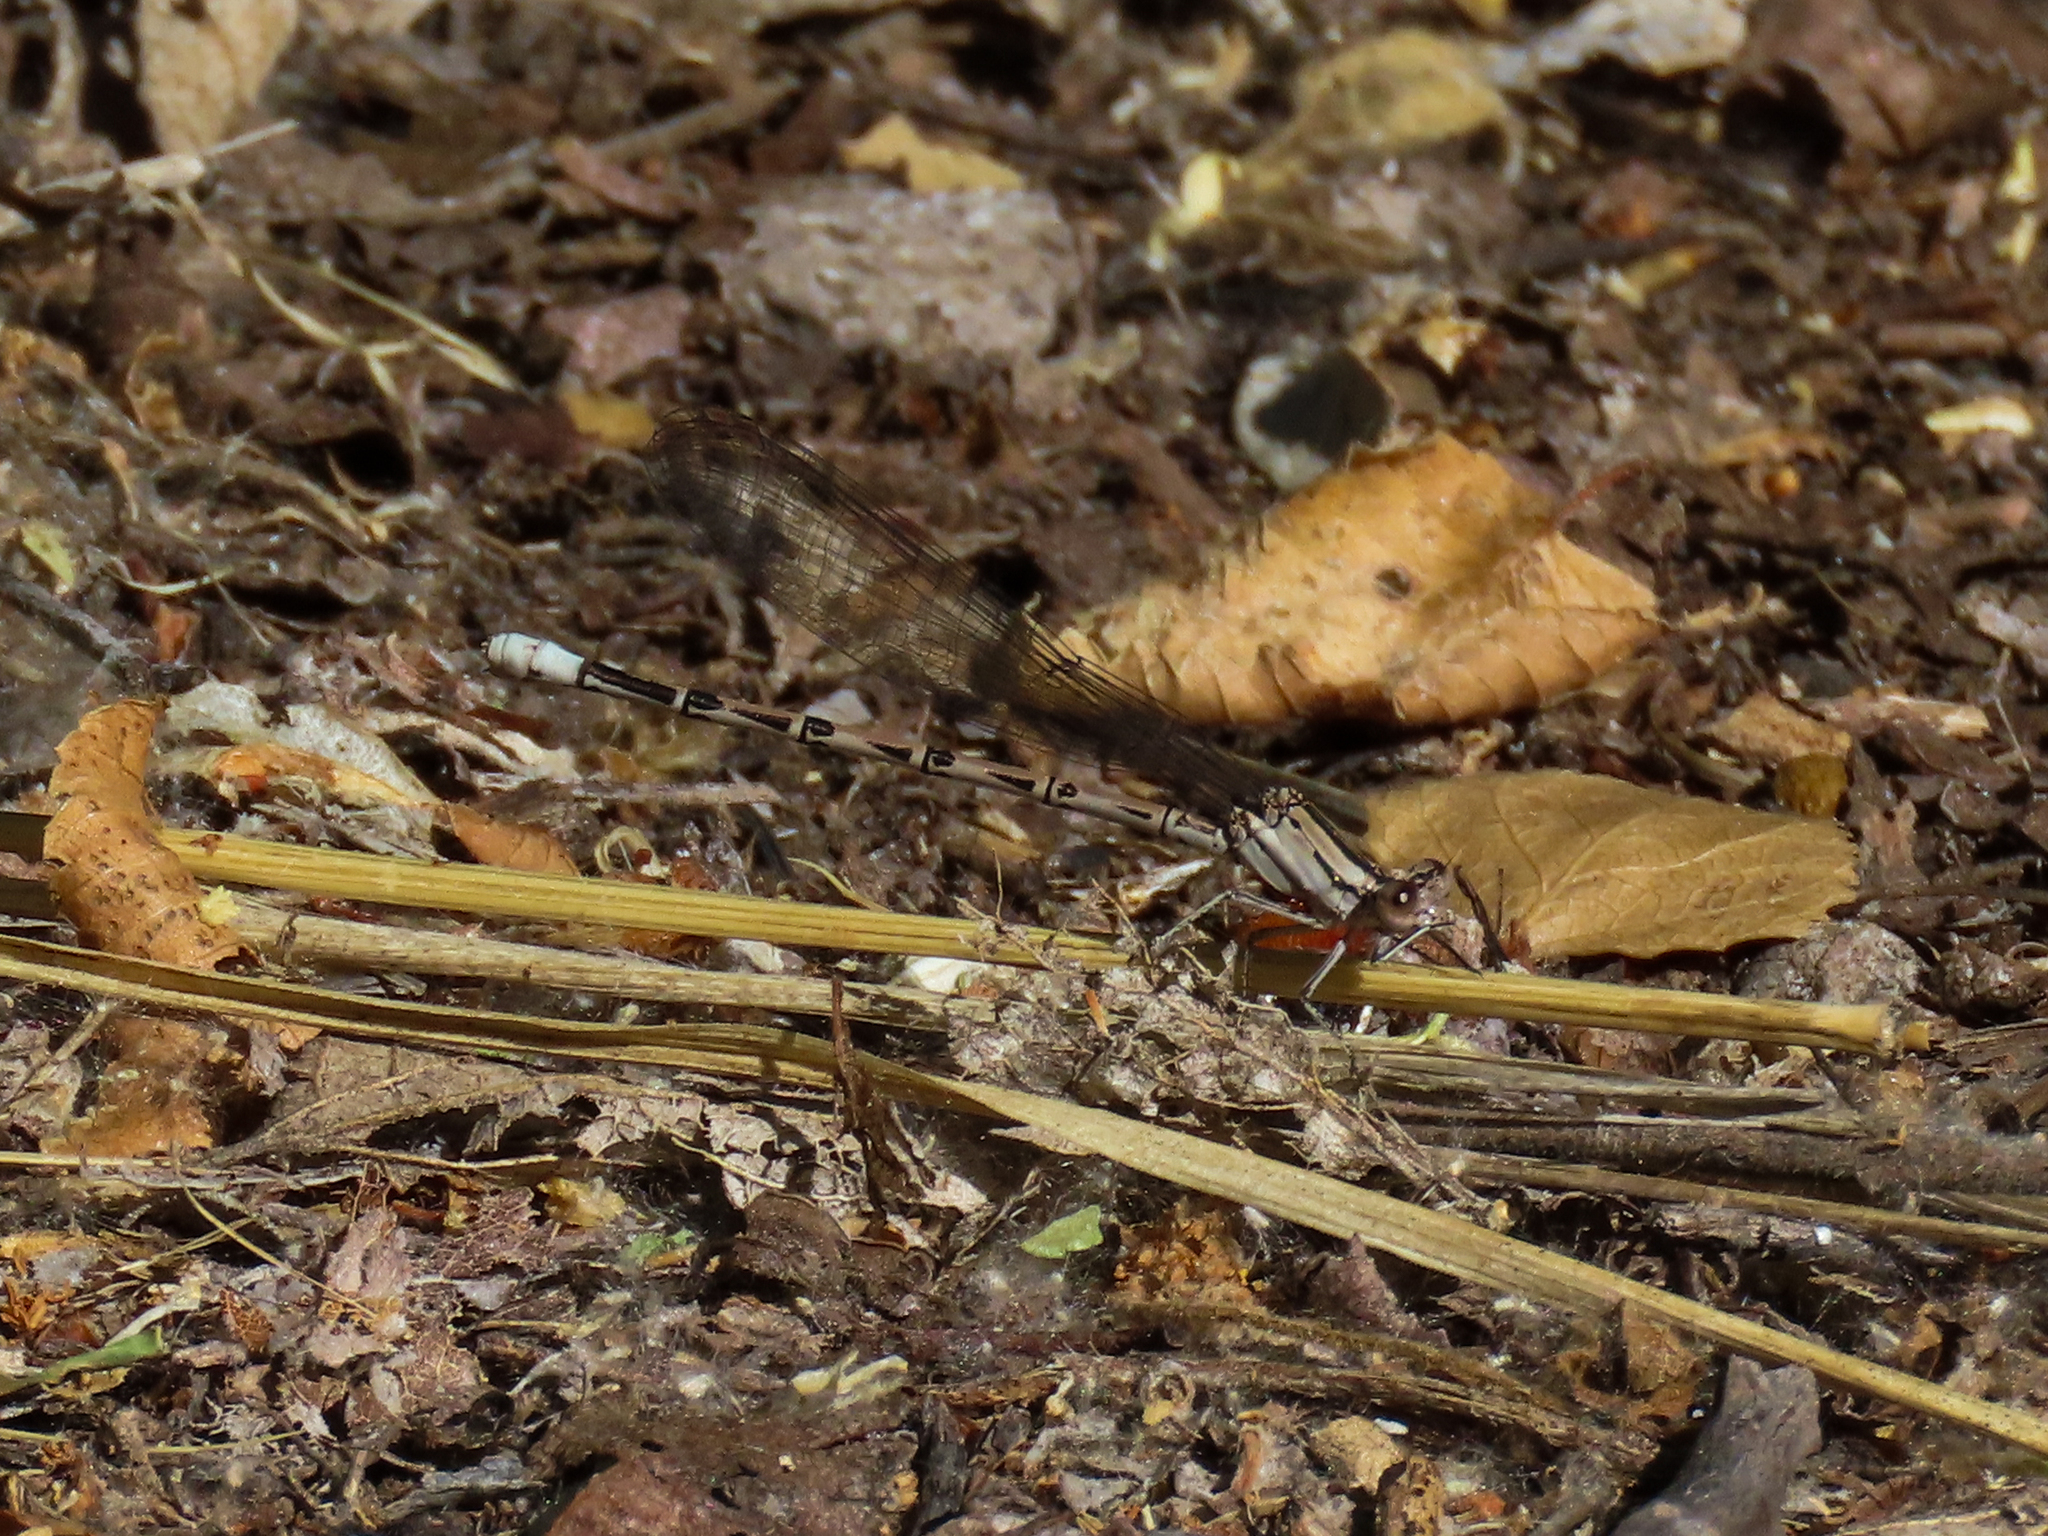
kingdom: Animalia
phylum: Arthropoda
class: Insecta
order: Odonata
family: Coenagrionidae
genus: Argia
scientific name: Argia funebris
